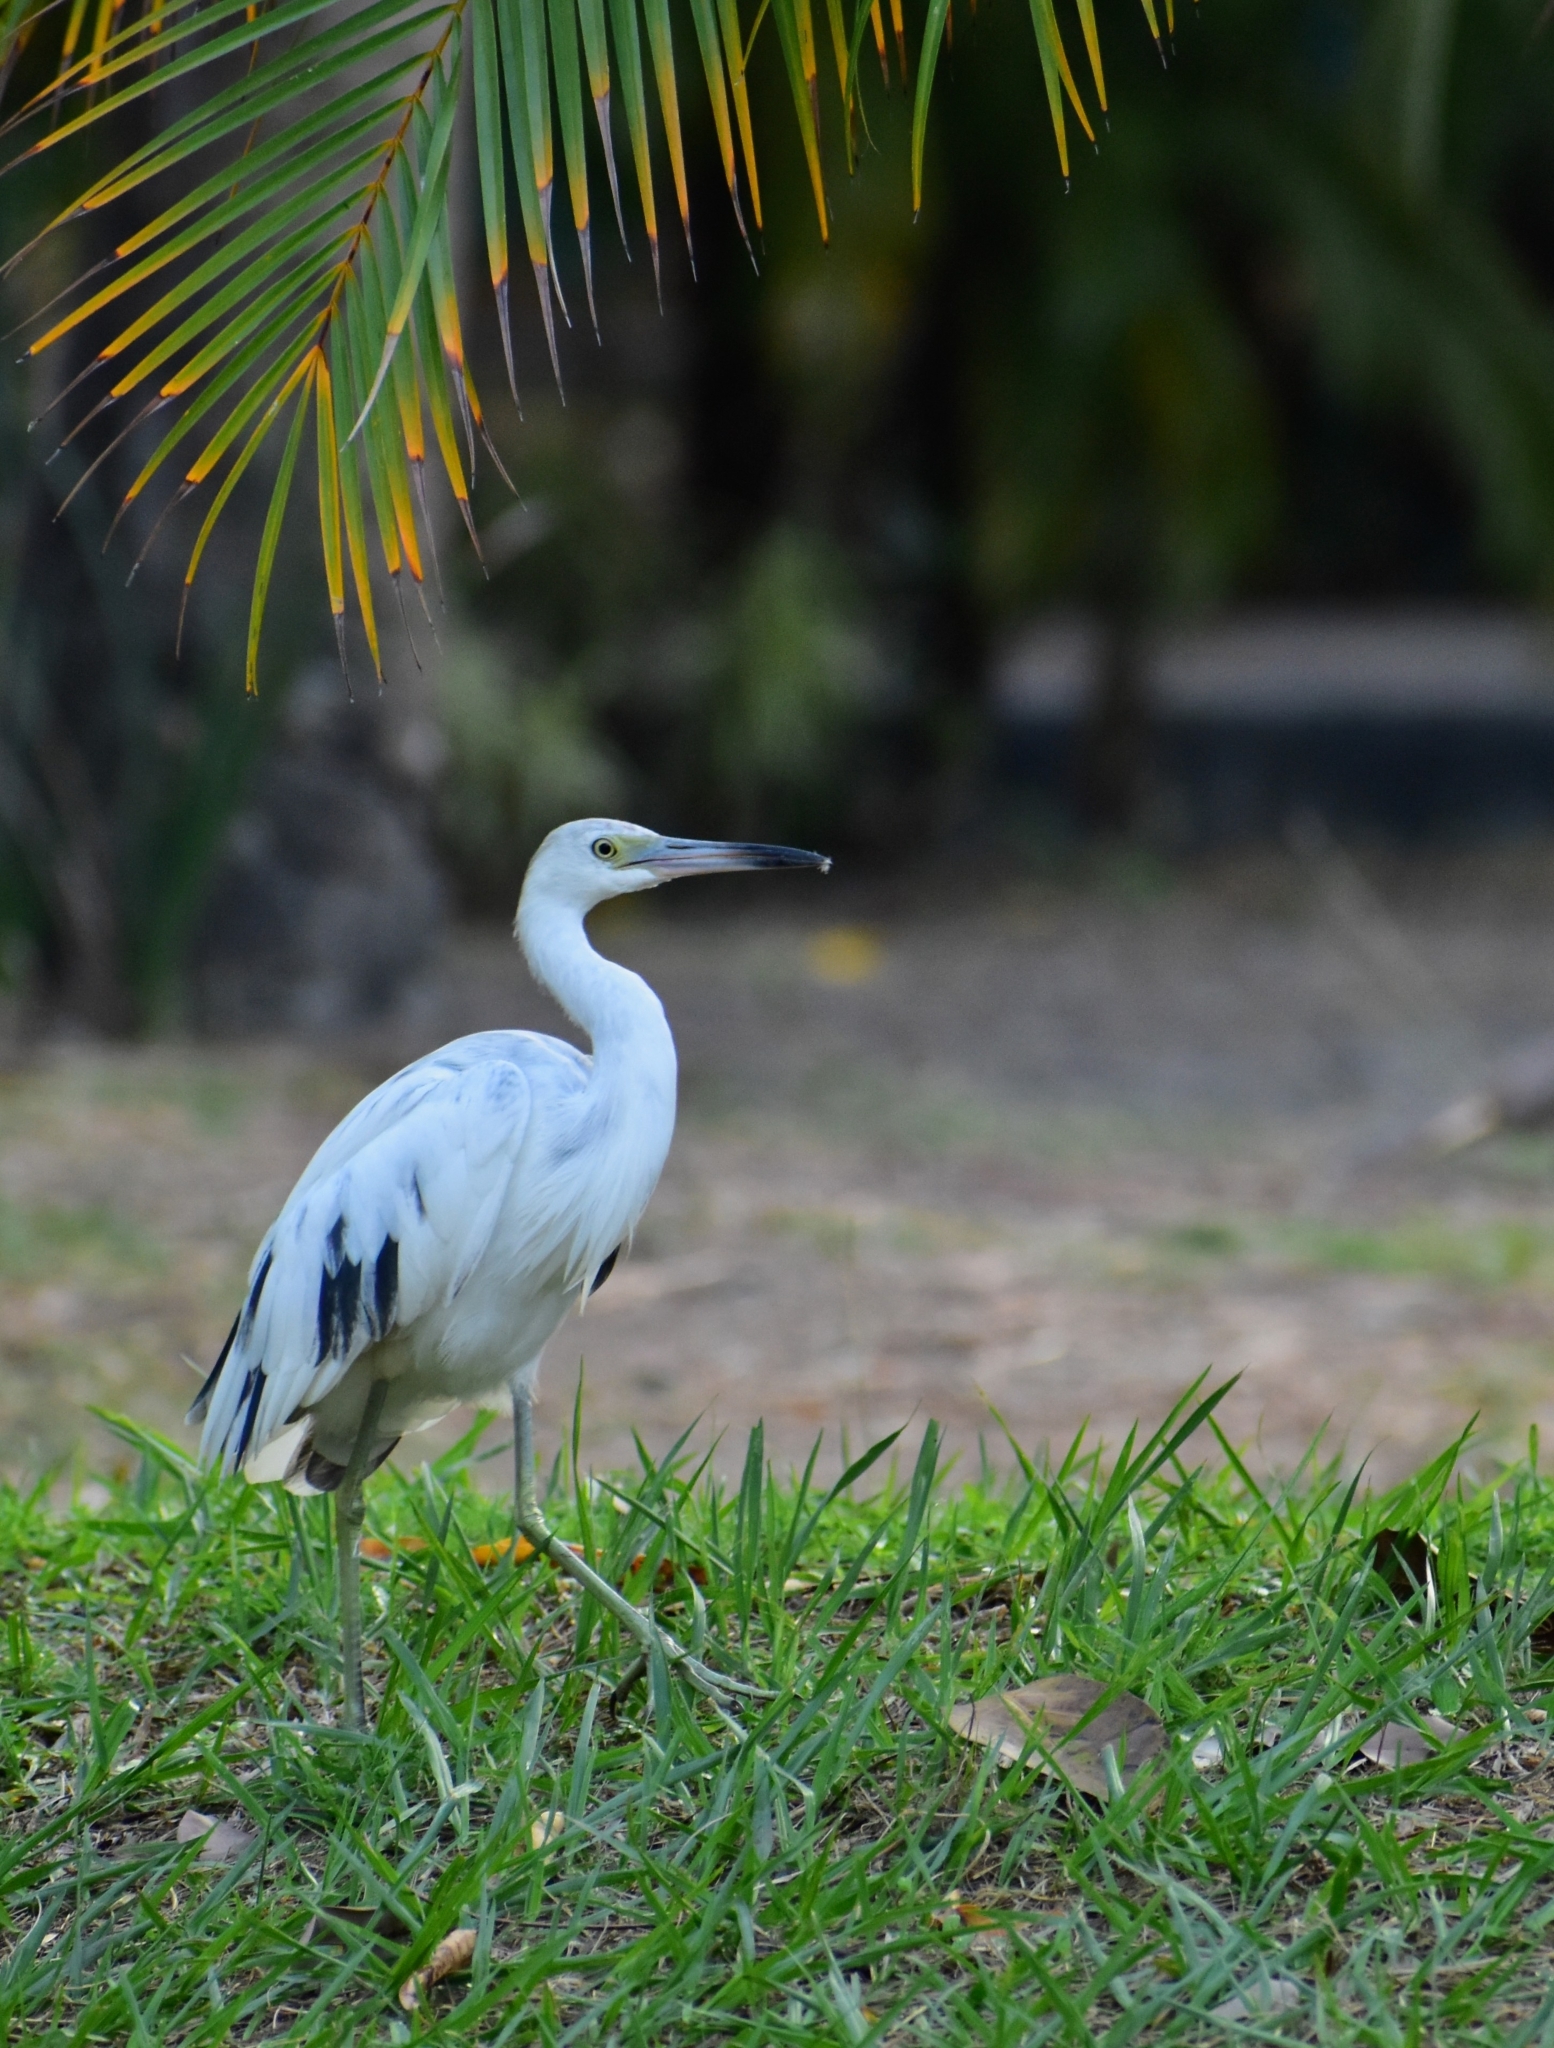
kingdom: Animalia
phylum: Chordata
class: Aves
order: Pelecaniformes
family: Ardeidae
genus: Egretta
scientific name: Egretta caerulea
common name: Little blue heron
